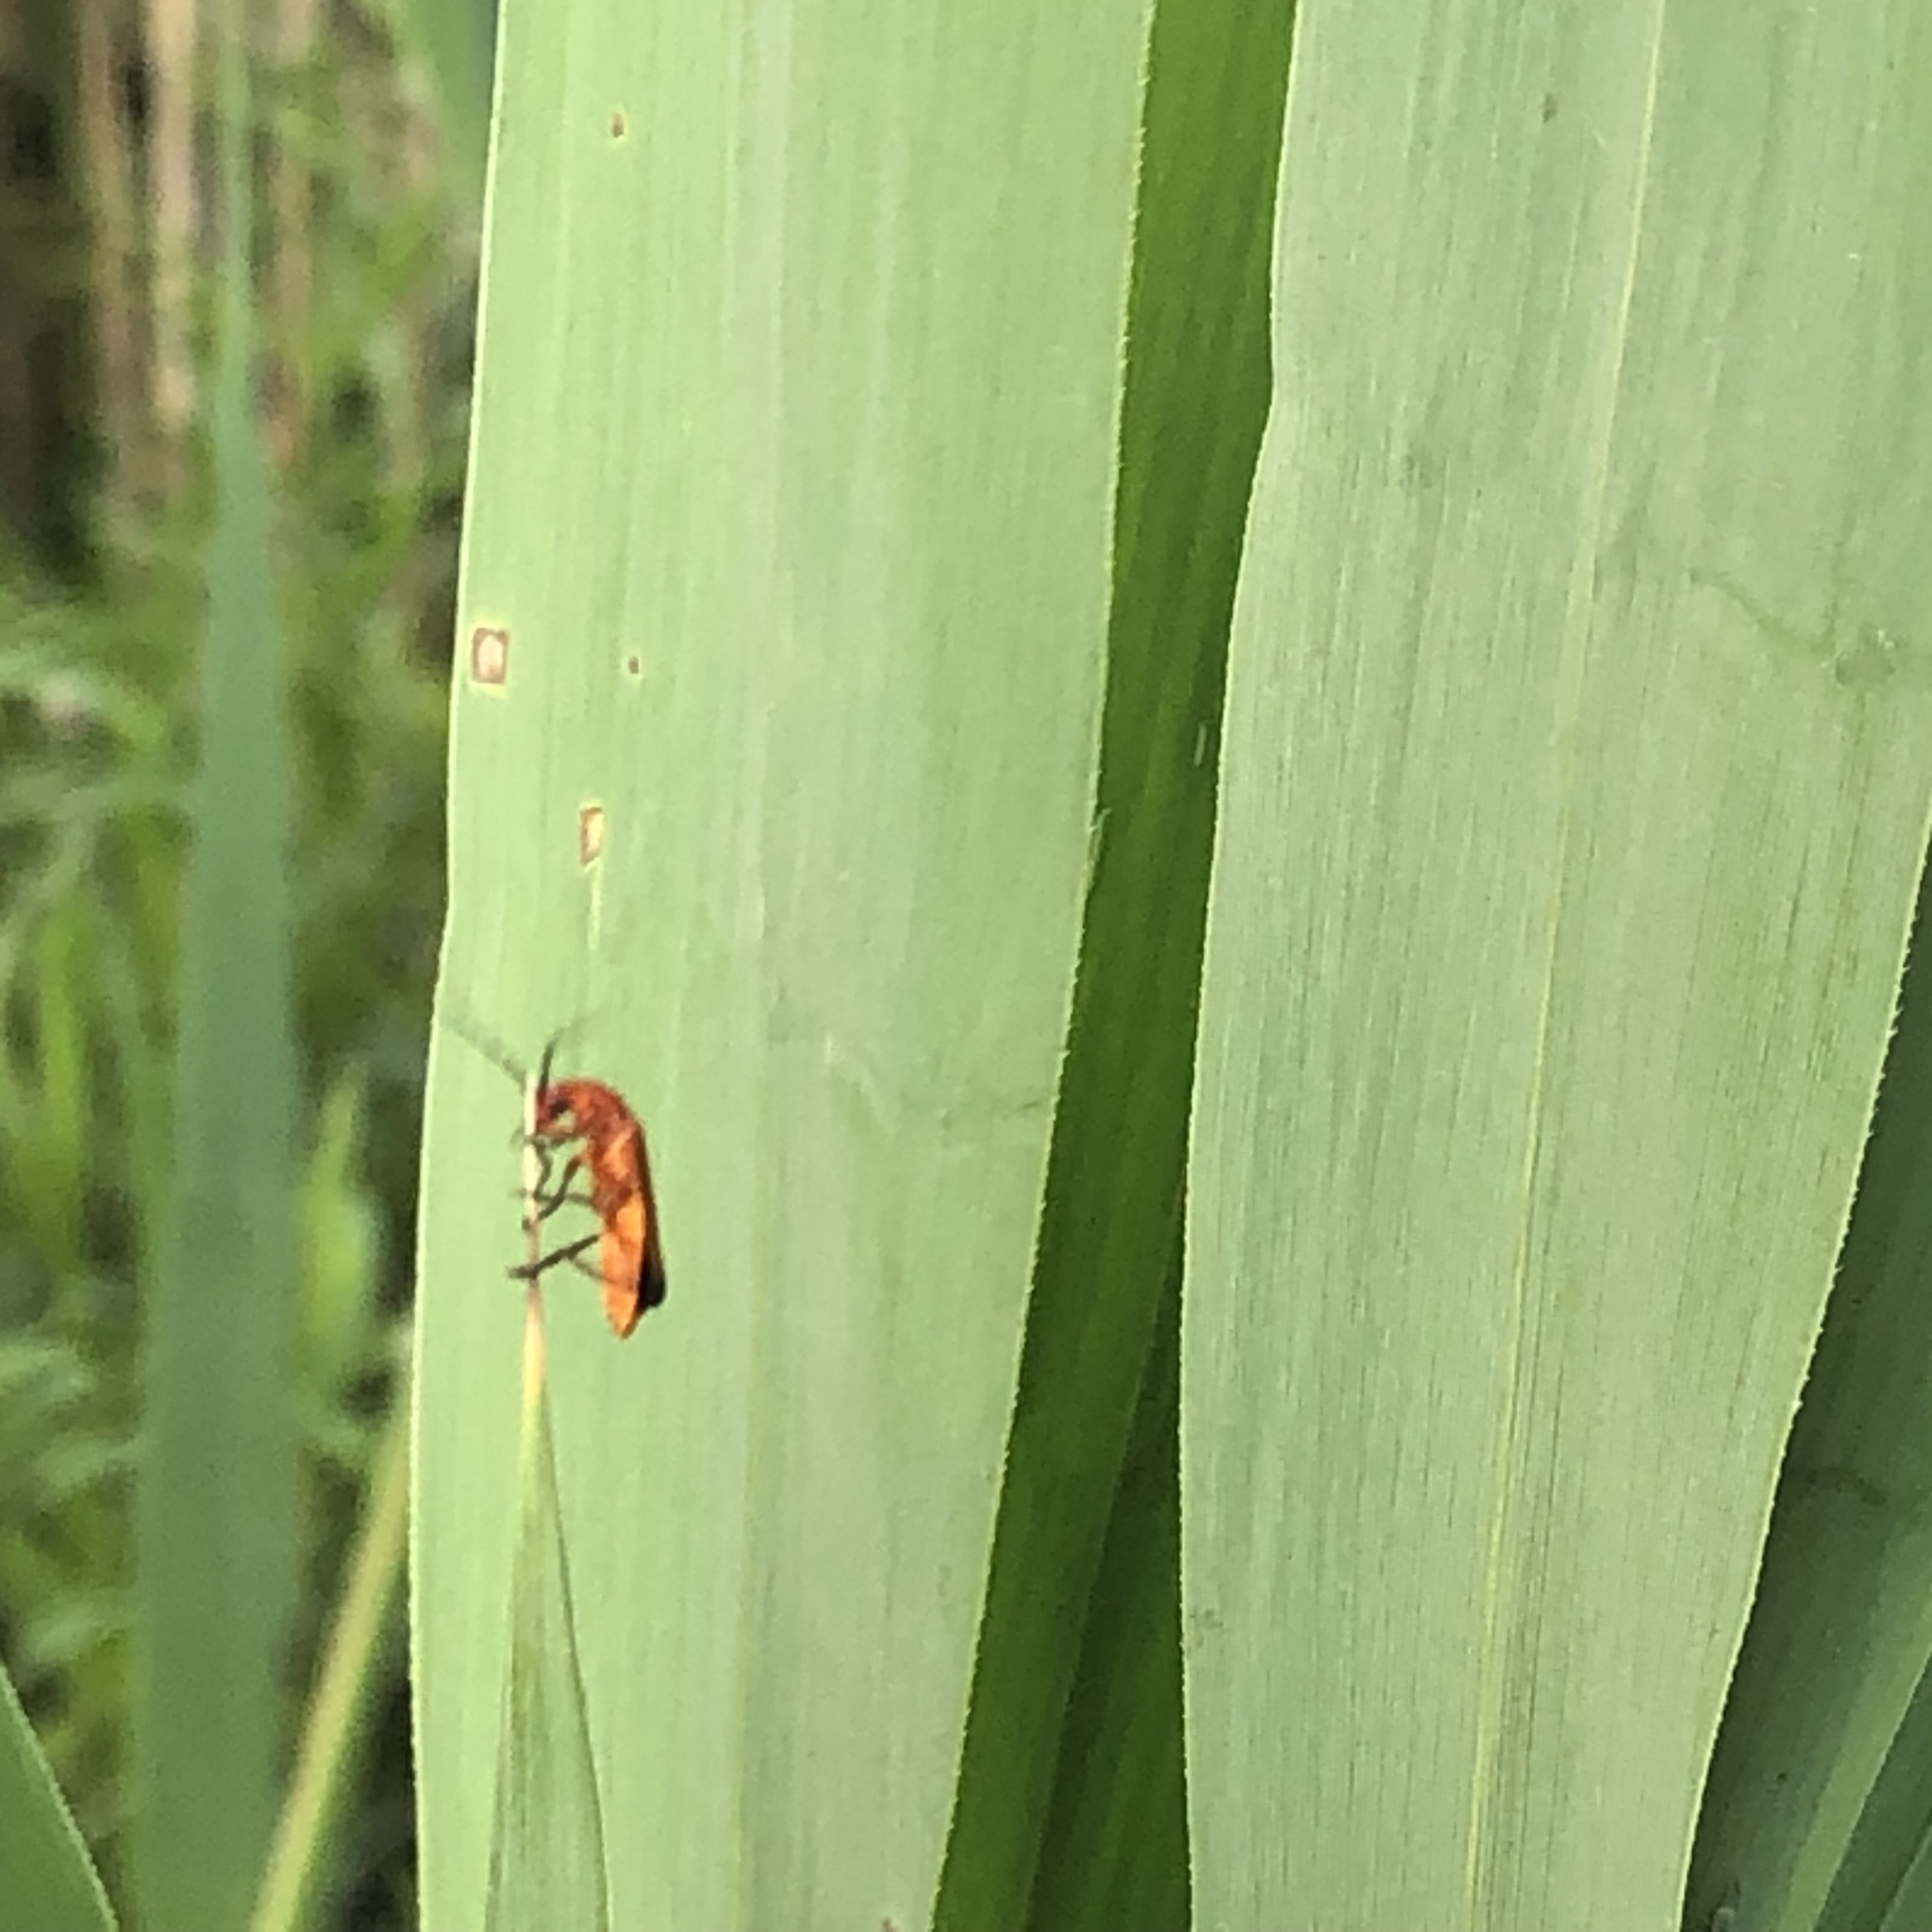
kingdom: Animalia
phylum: Arthropoda
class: Insecta
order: Coleoptera
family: Cantharidae
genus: Rhagonycha
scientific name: Rhagonycha fulva
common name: Common red soldier beetle
